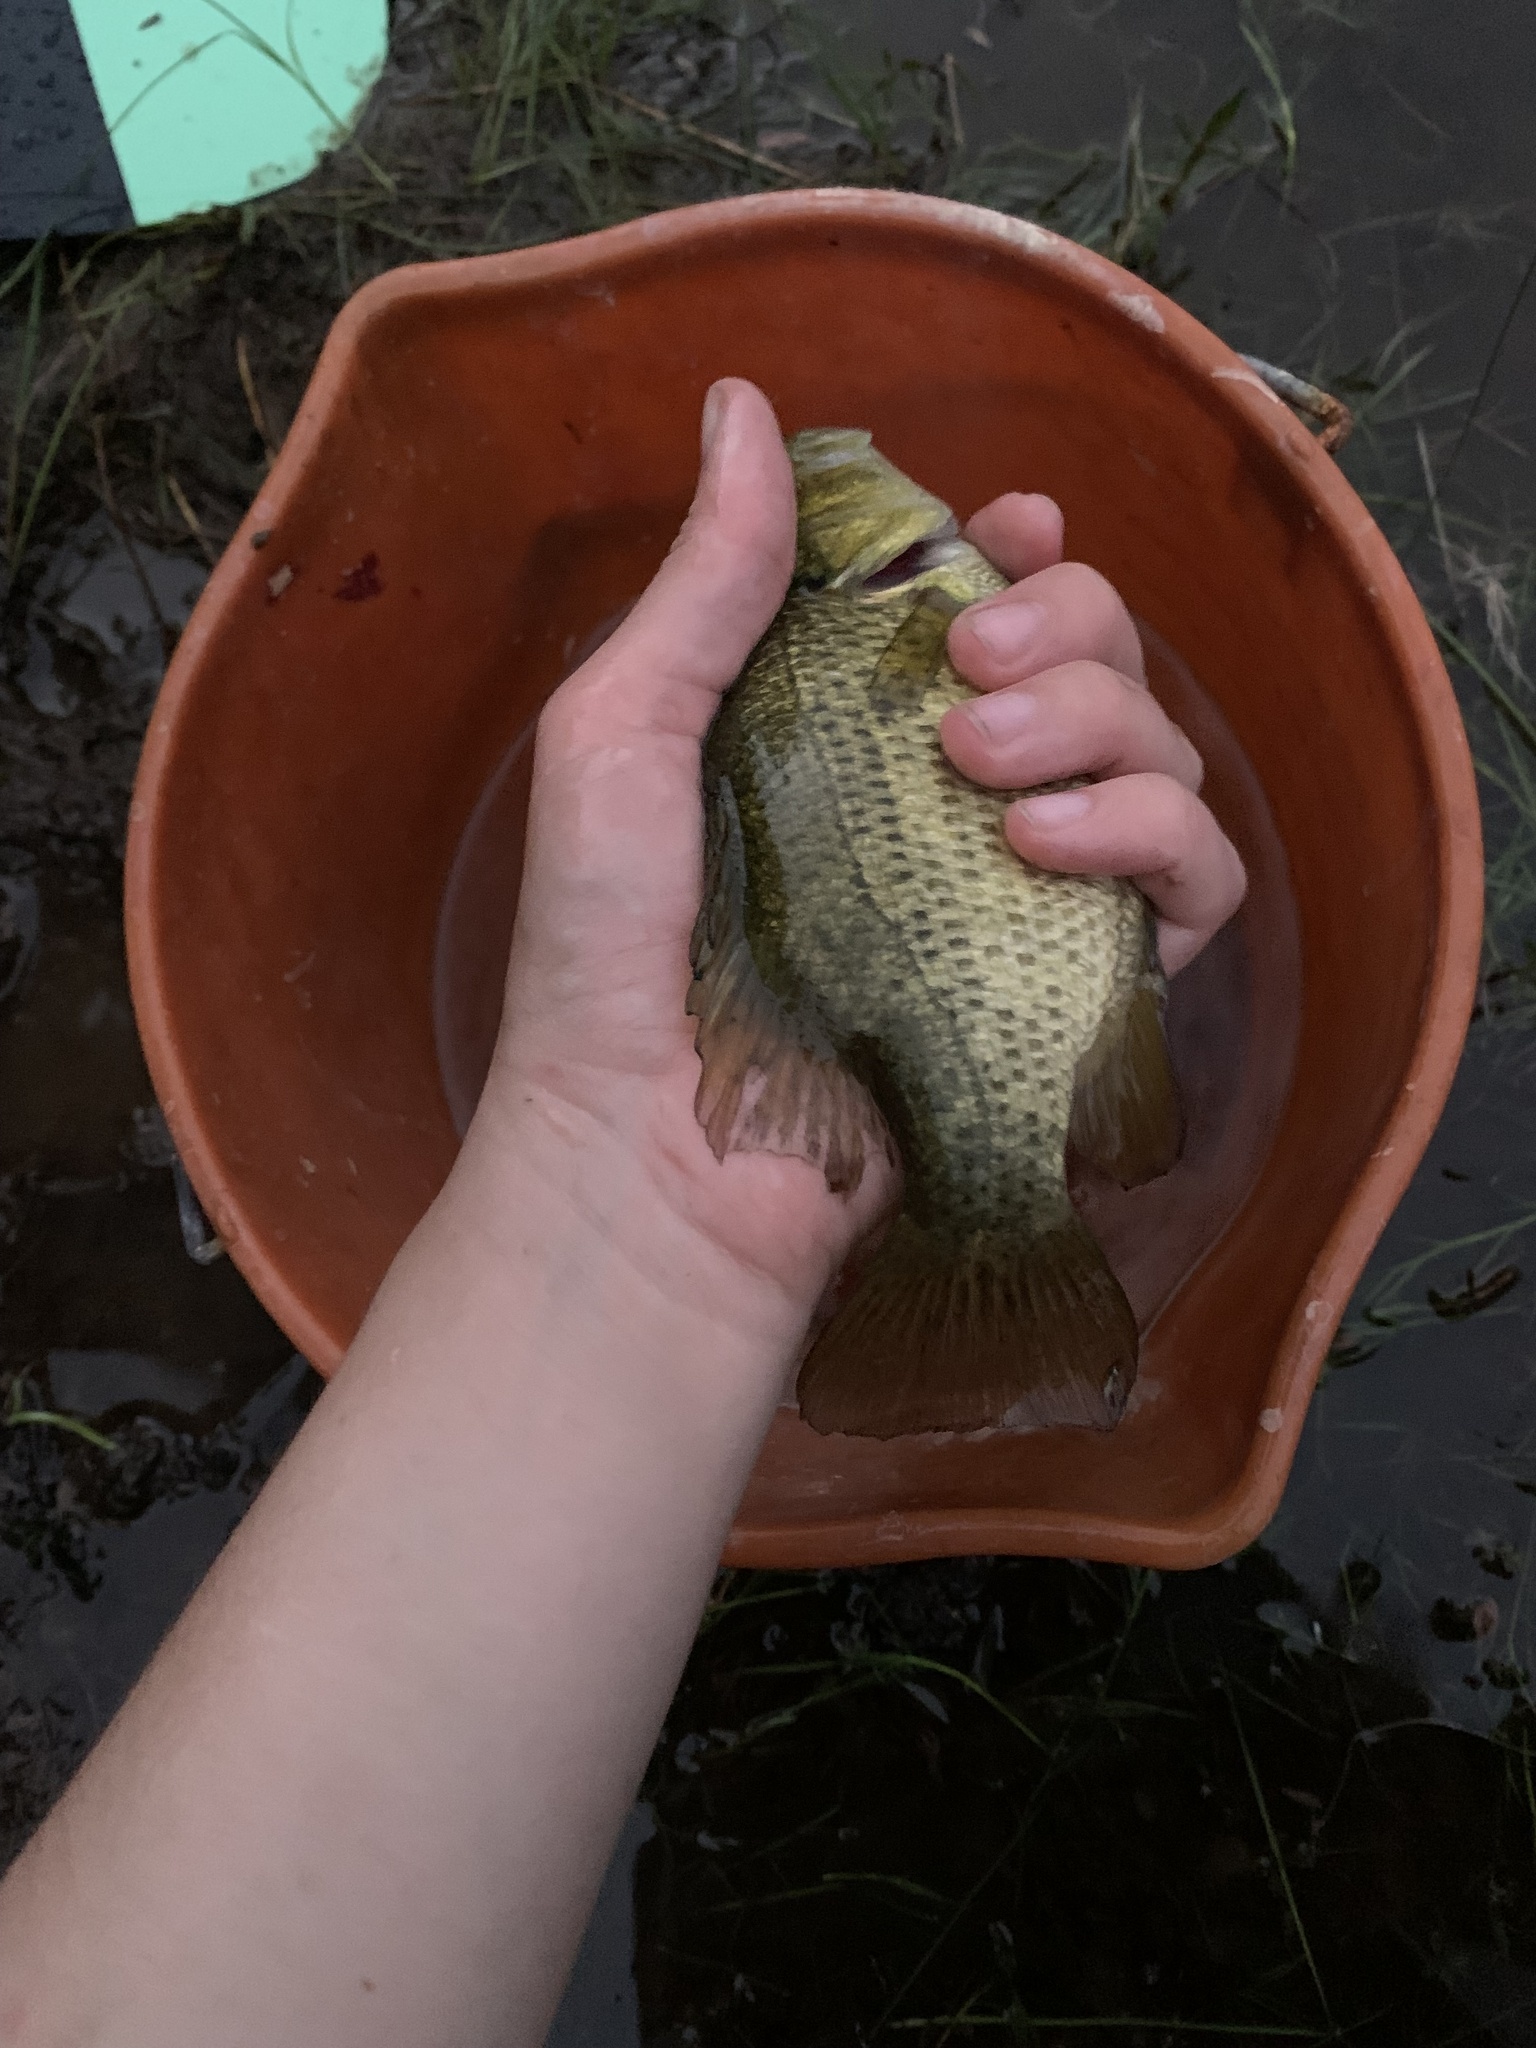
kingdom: Animalia
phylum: Chordata
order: Perciformes
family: Centrarchidae
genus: Ambloplites
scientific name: Ambloplites rupestris
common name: Rock bass
